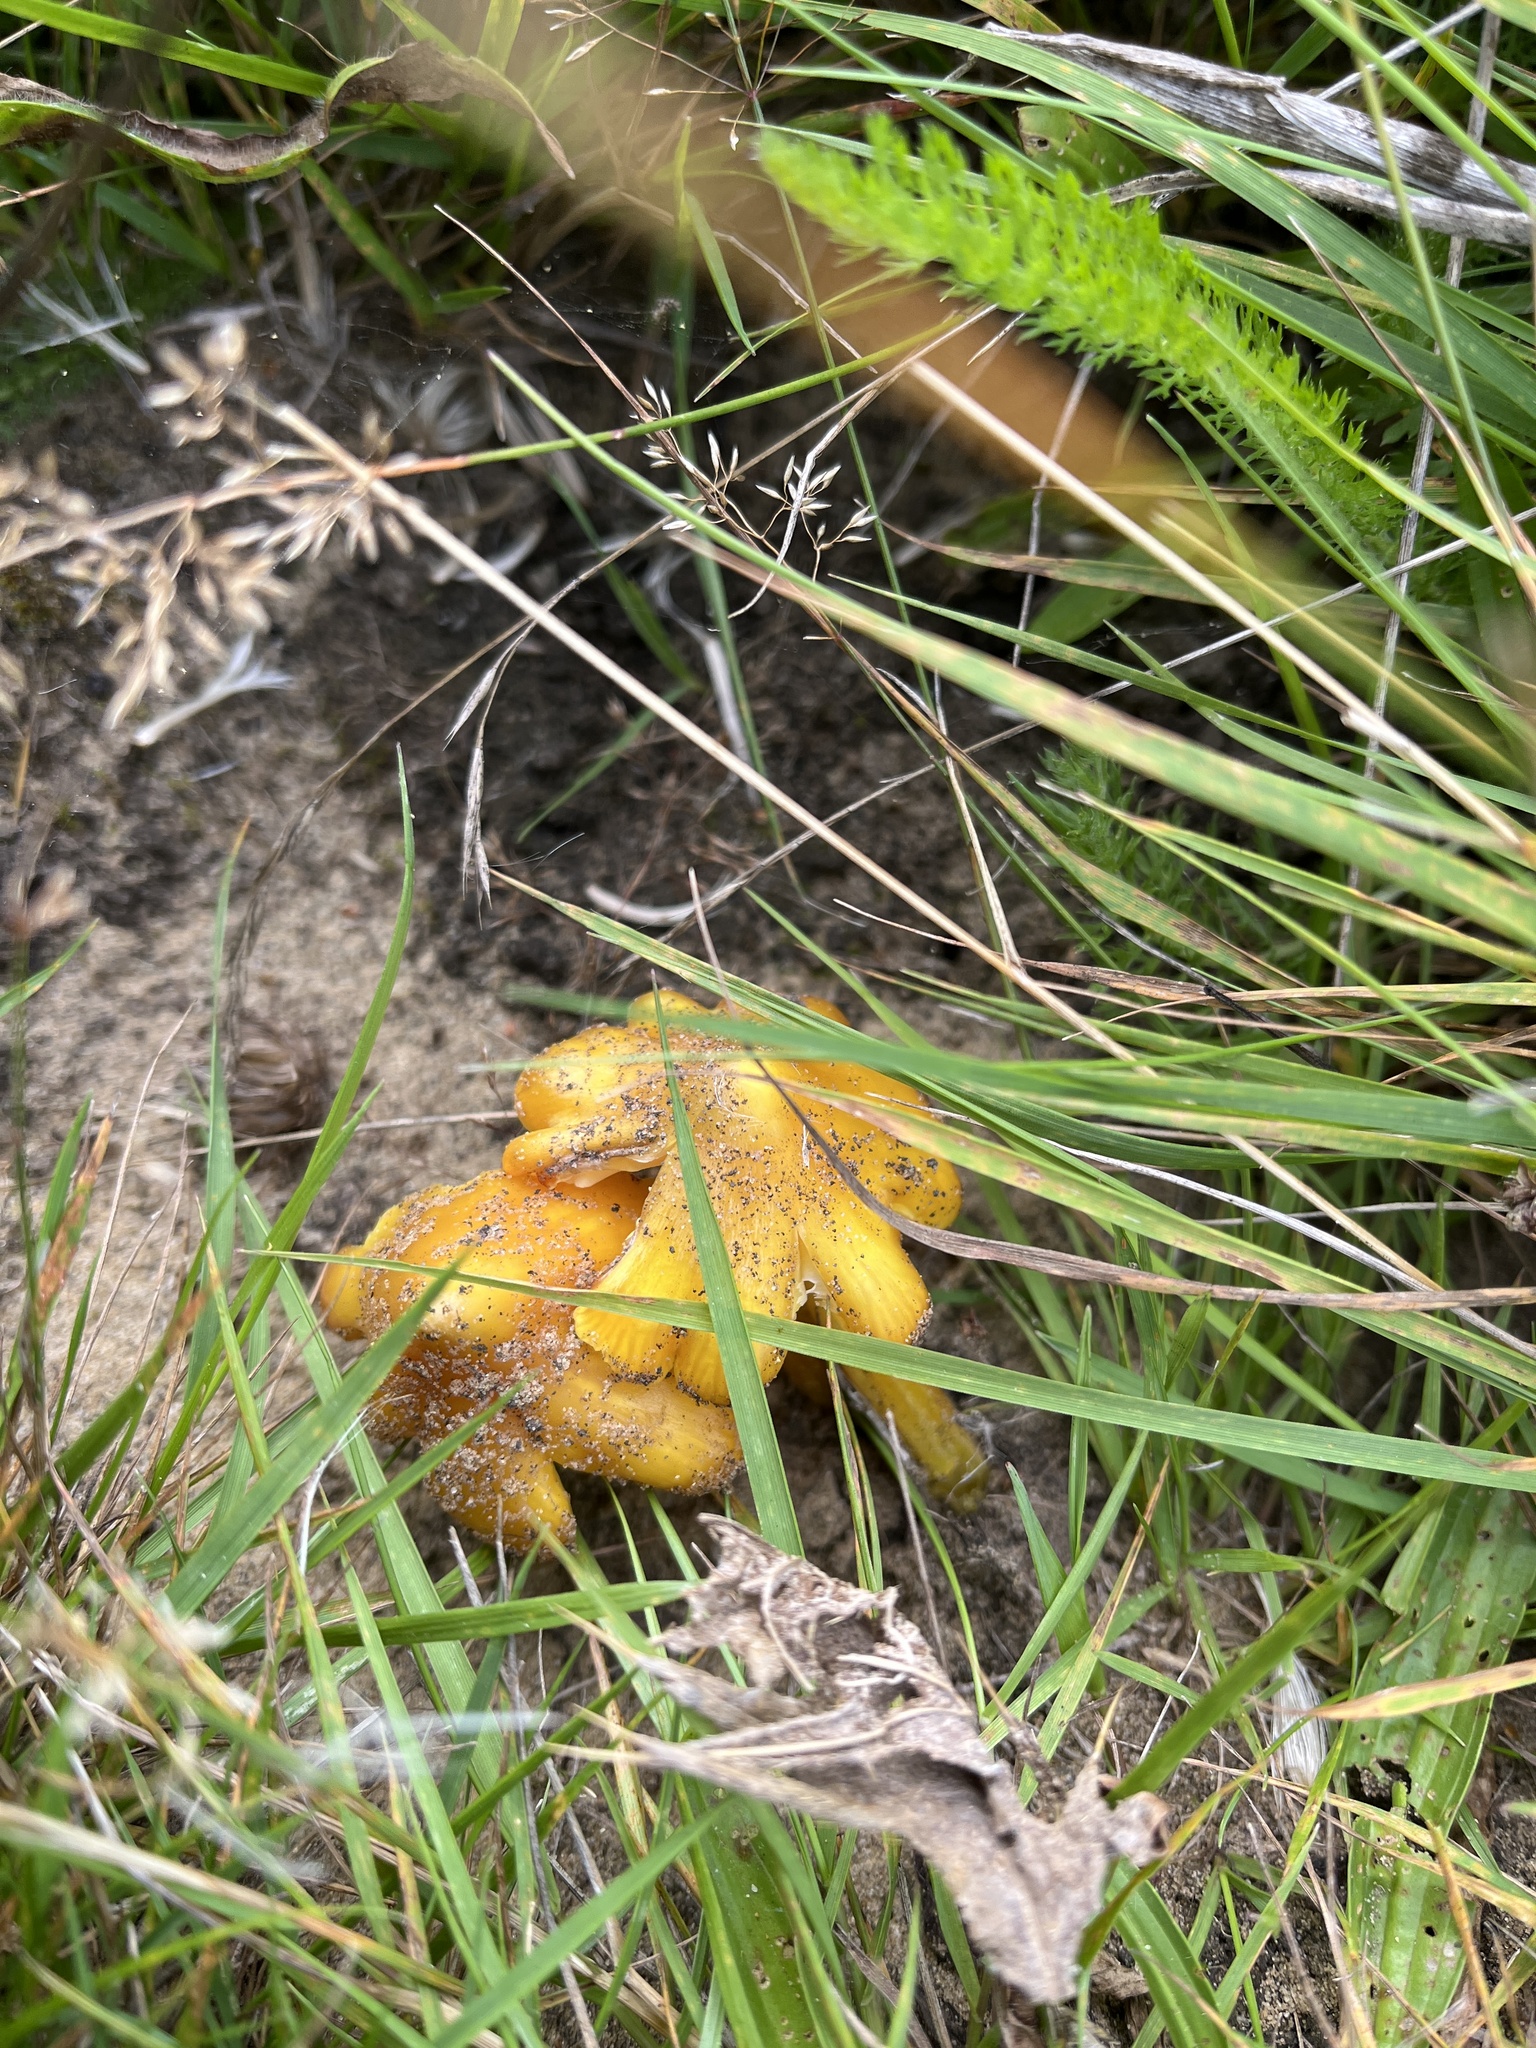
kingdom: Fungi
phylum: Basidiomycota
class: Agaricomycetes
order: Agaricales
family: Hygrophoraceae
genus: Hygrocybe
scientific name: Hygrocybe acutoconica
